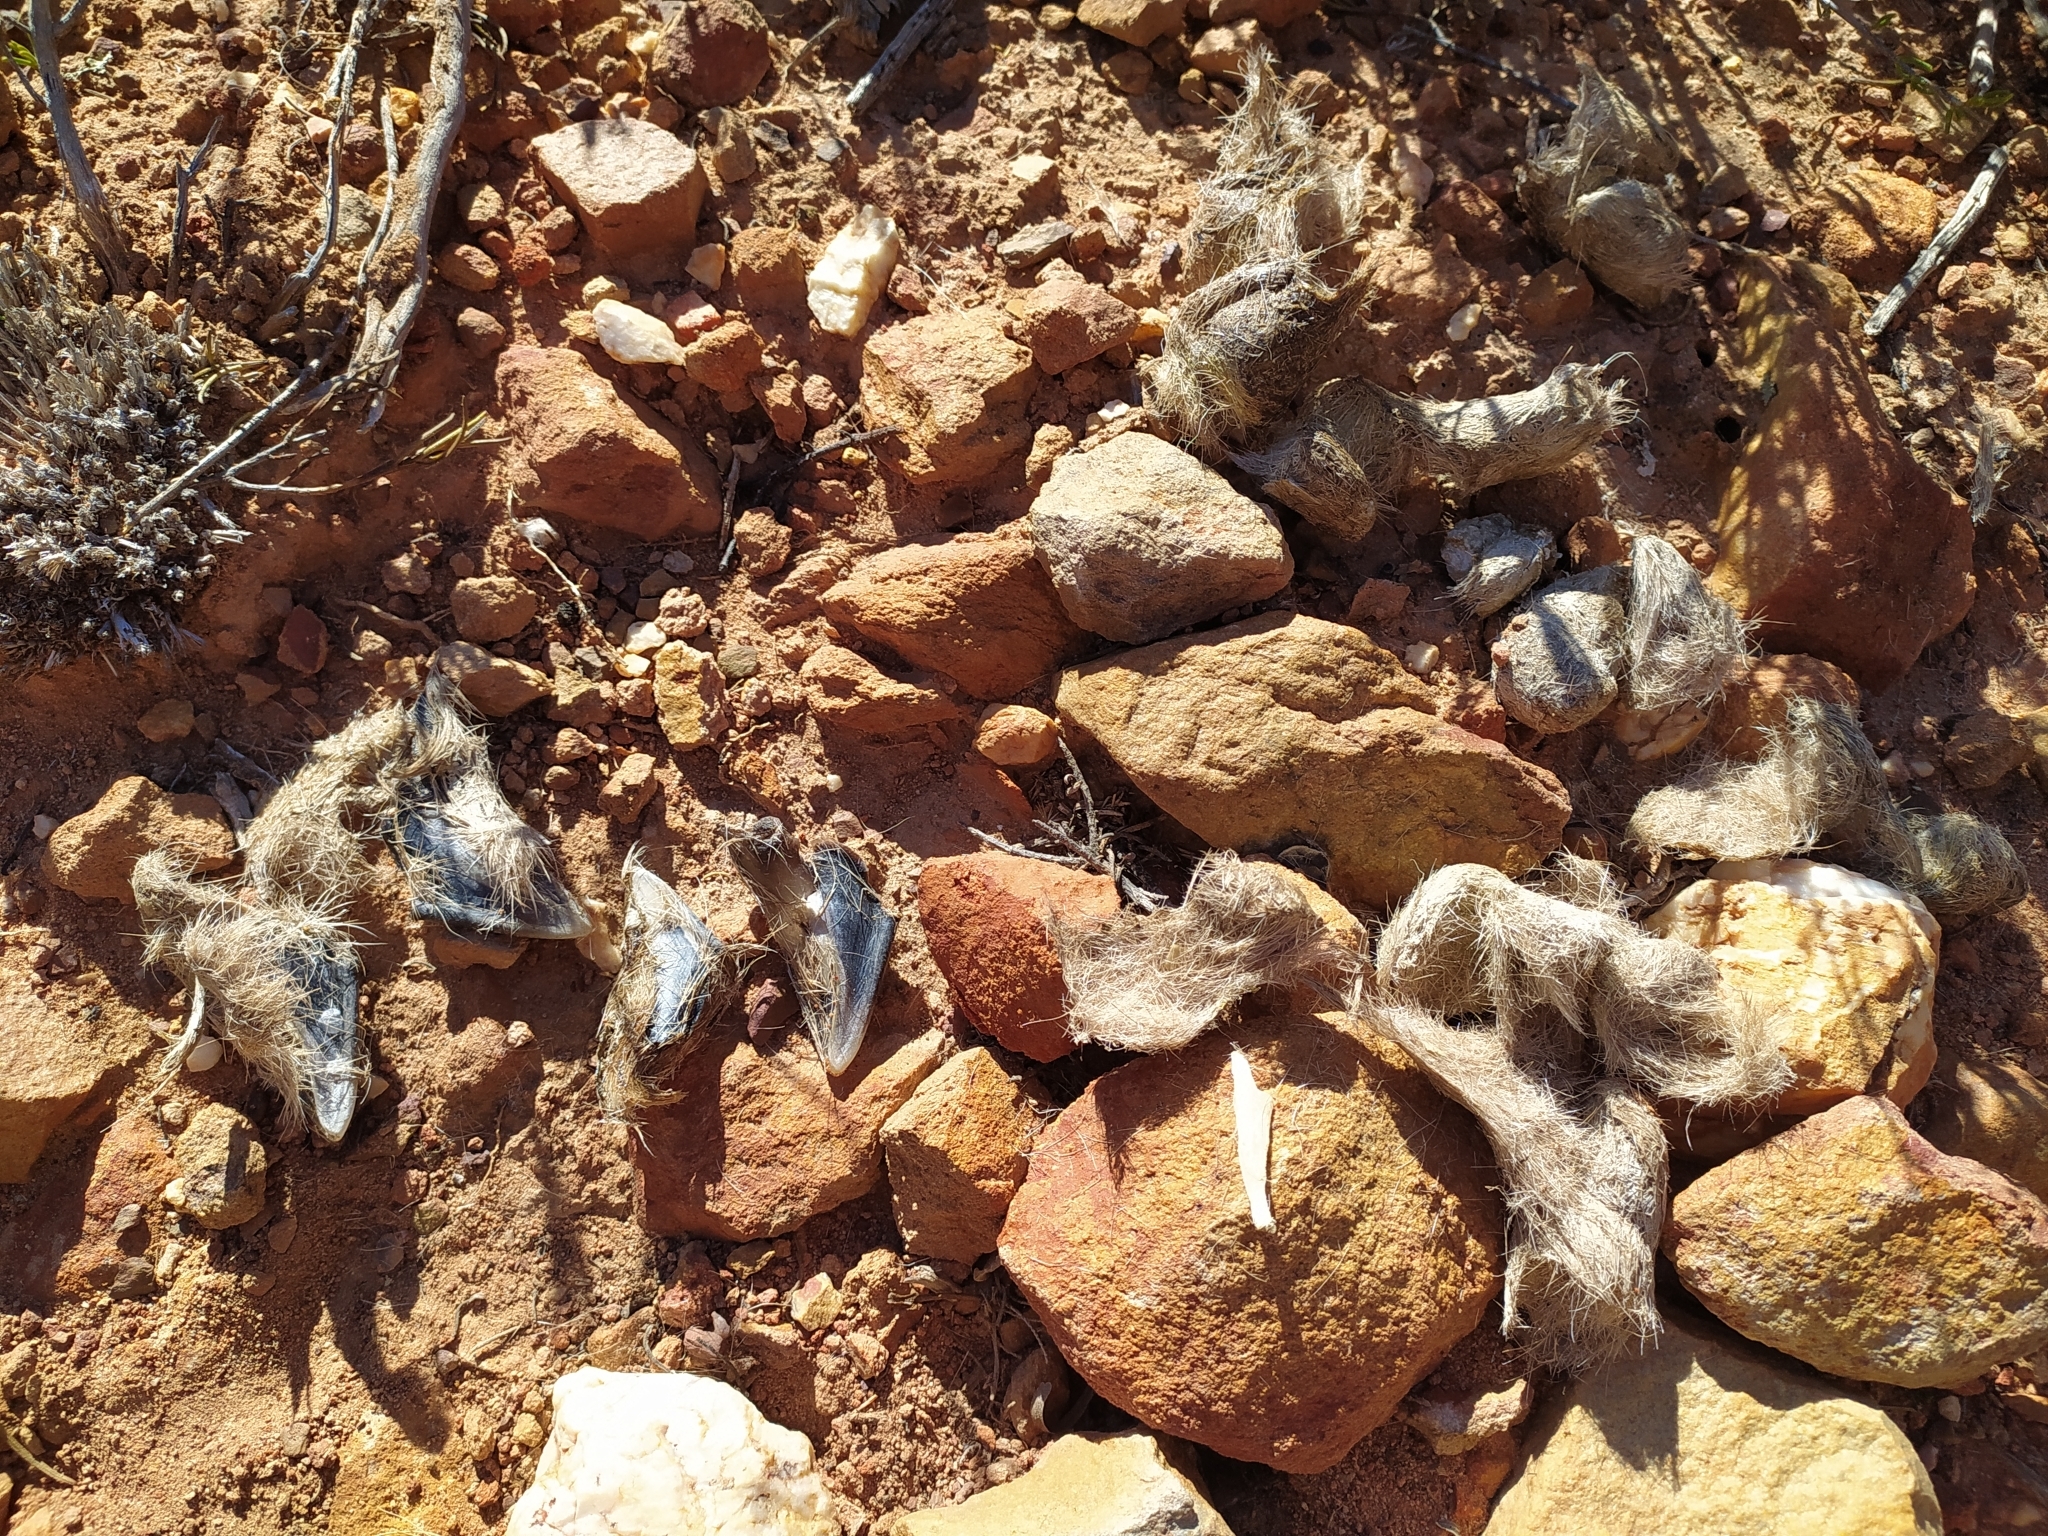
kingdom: Animalia
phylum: Chordata
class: Mammalia
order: Carnivora
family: Felidae
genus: Panthera
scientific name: Panthera pardus
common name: Leopard
